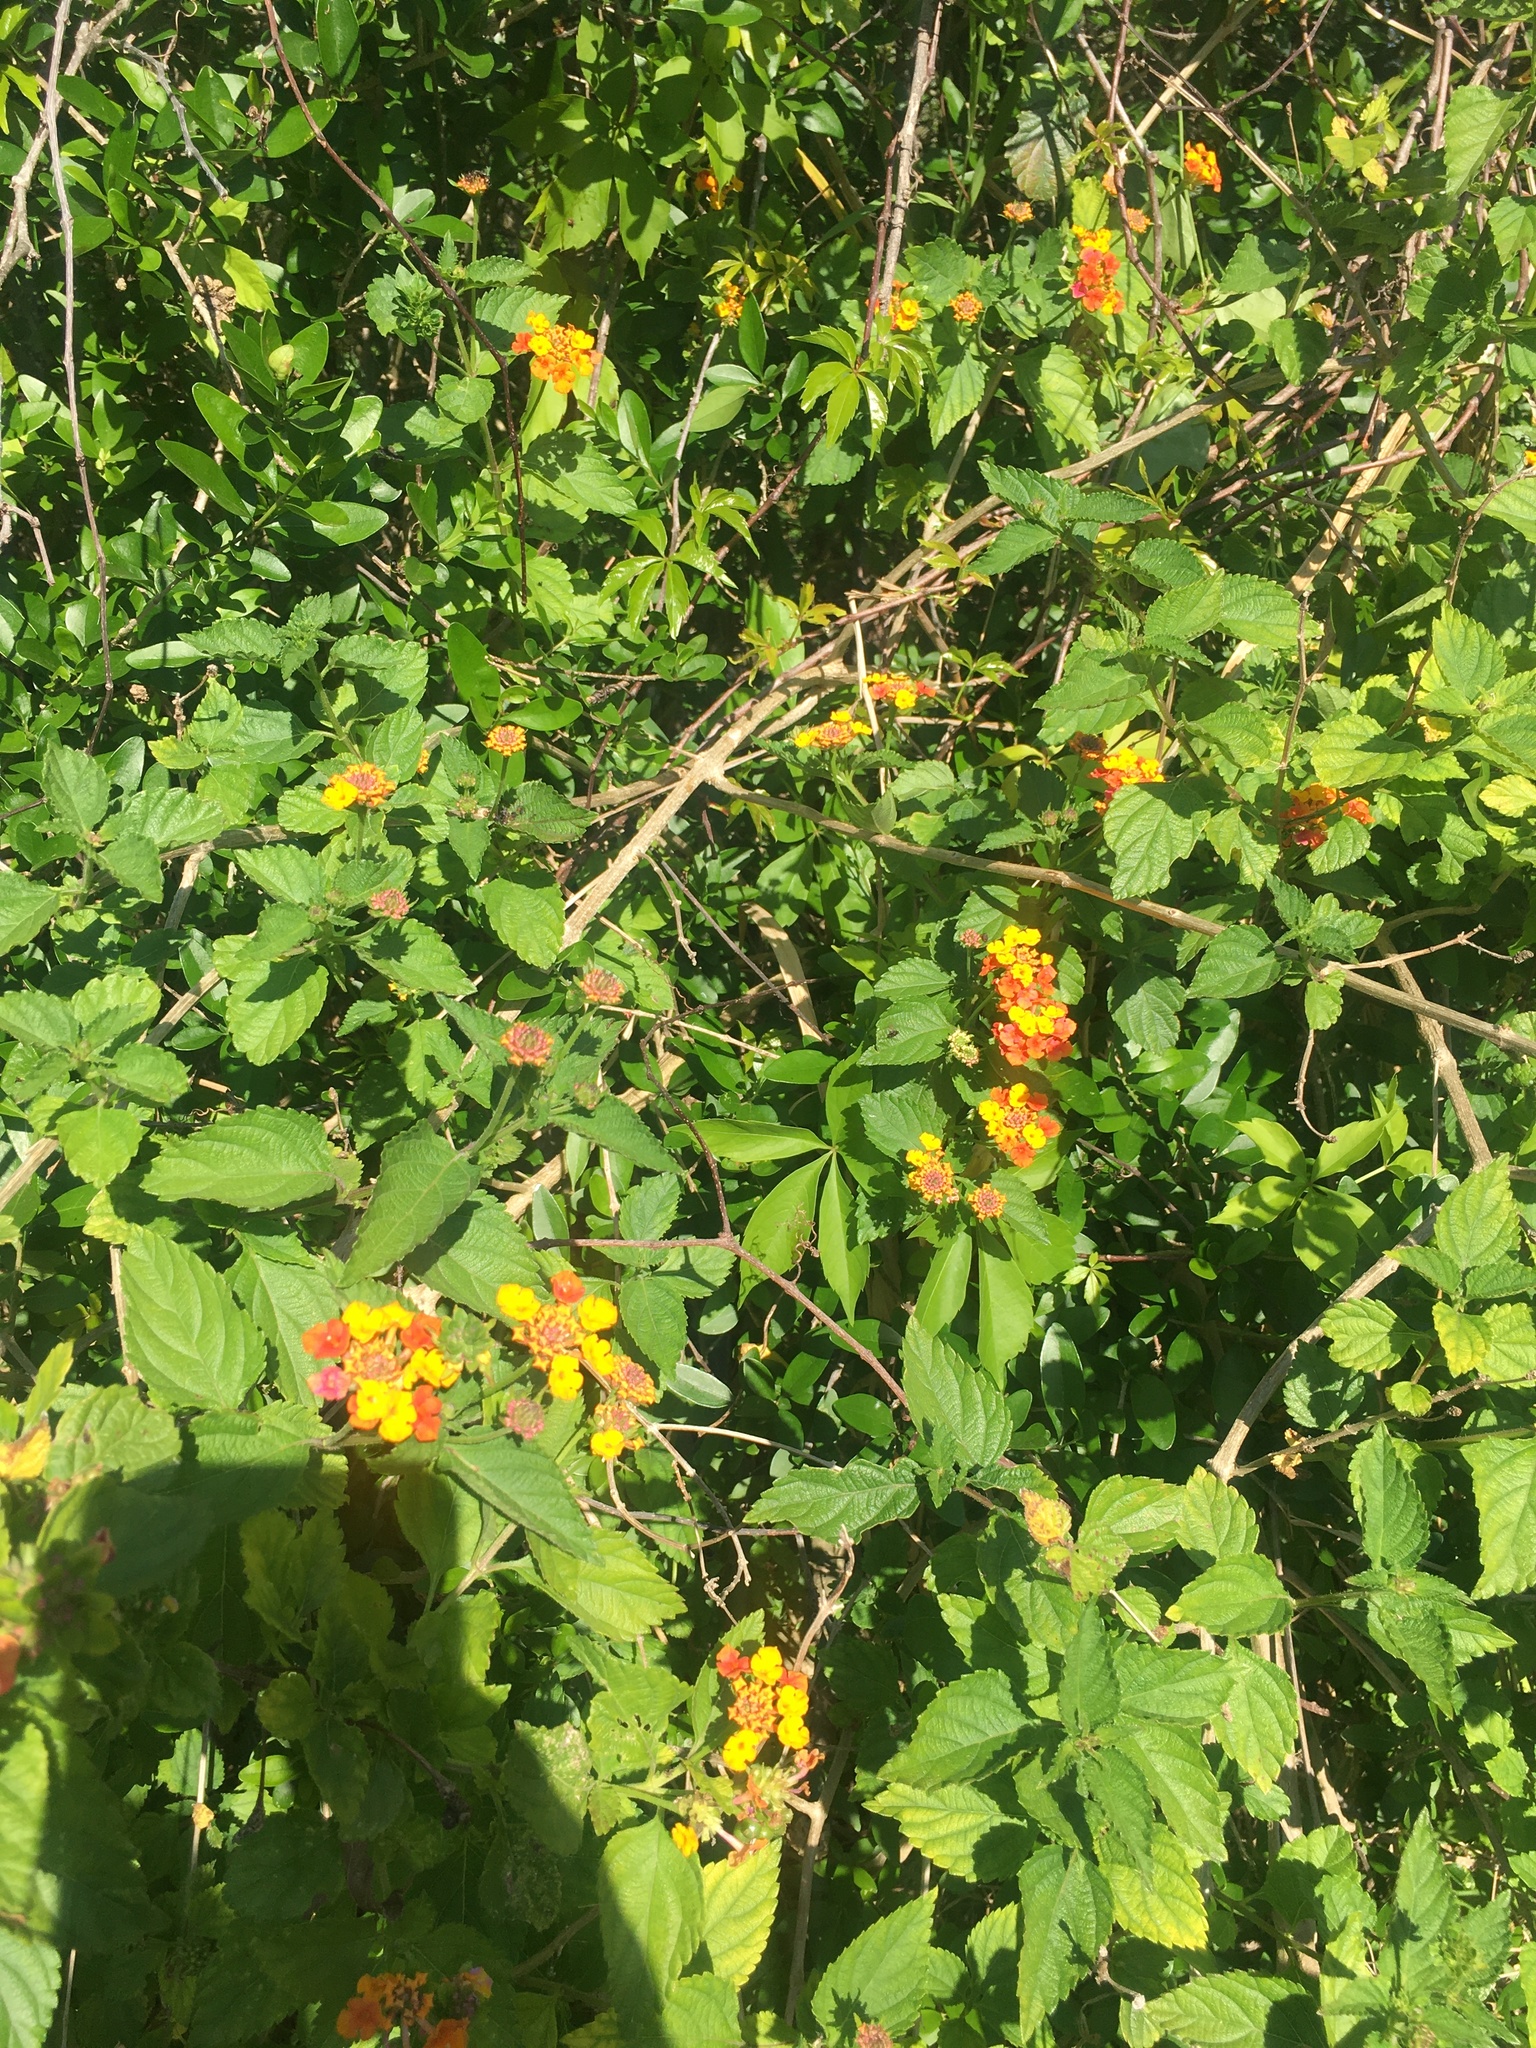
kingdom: Plantae
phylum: Tracheophyta
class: Magnoliopsida
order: Lamiales
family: Verbenaceae
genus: Lantana
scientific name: Lantana camara
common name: Lantana
